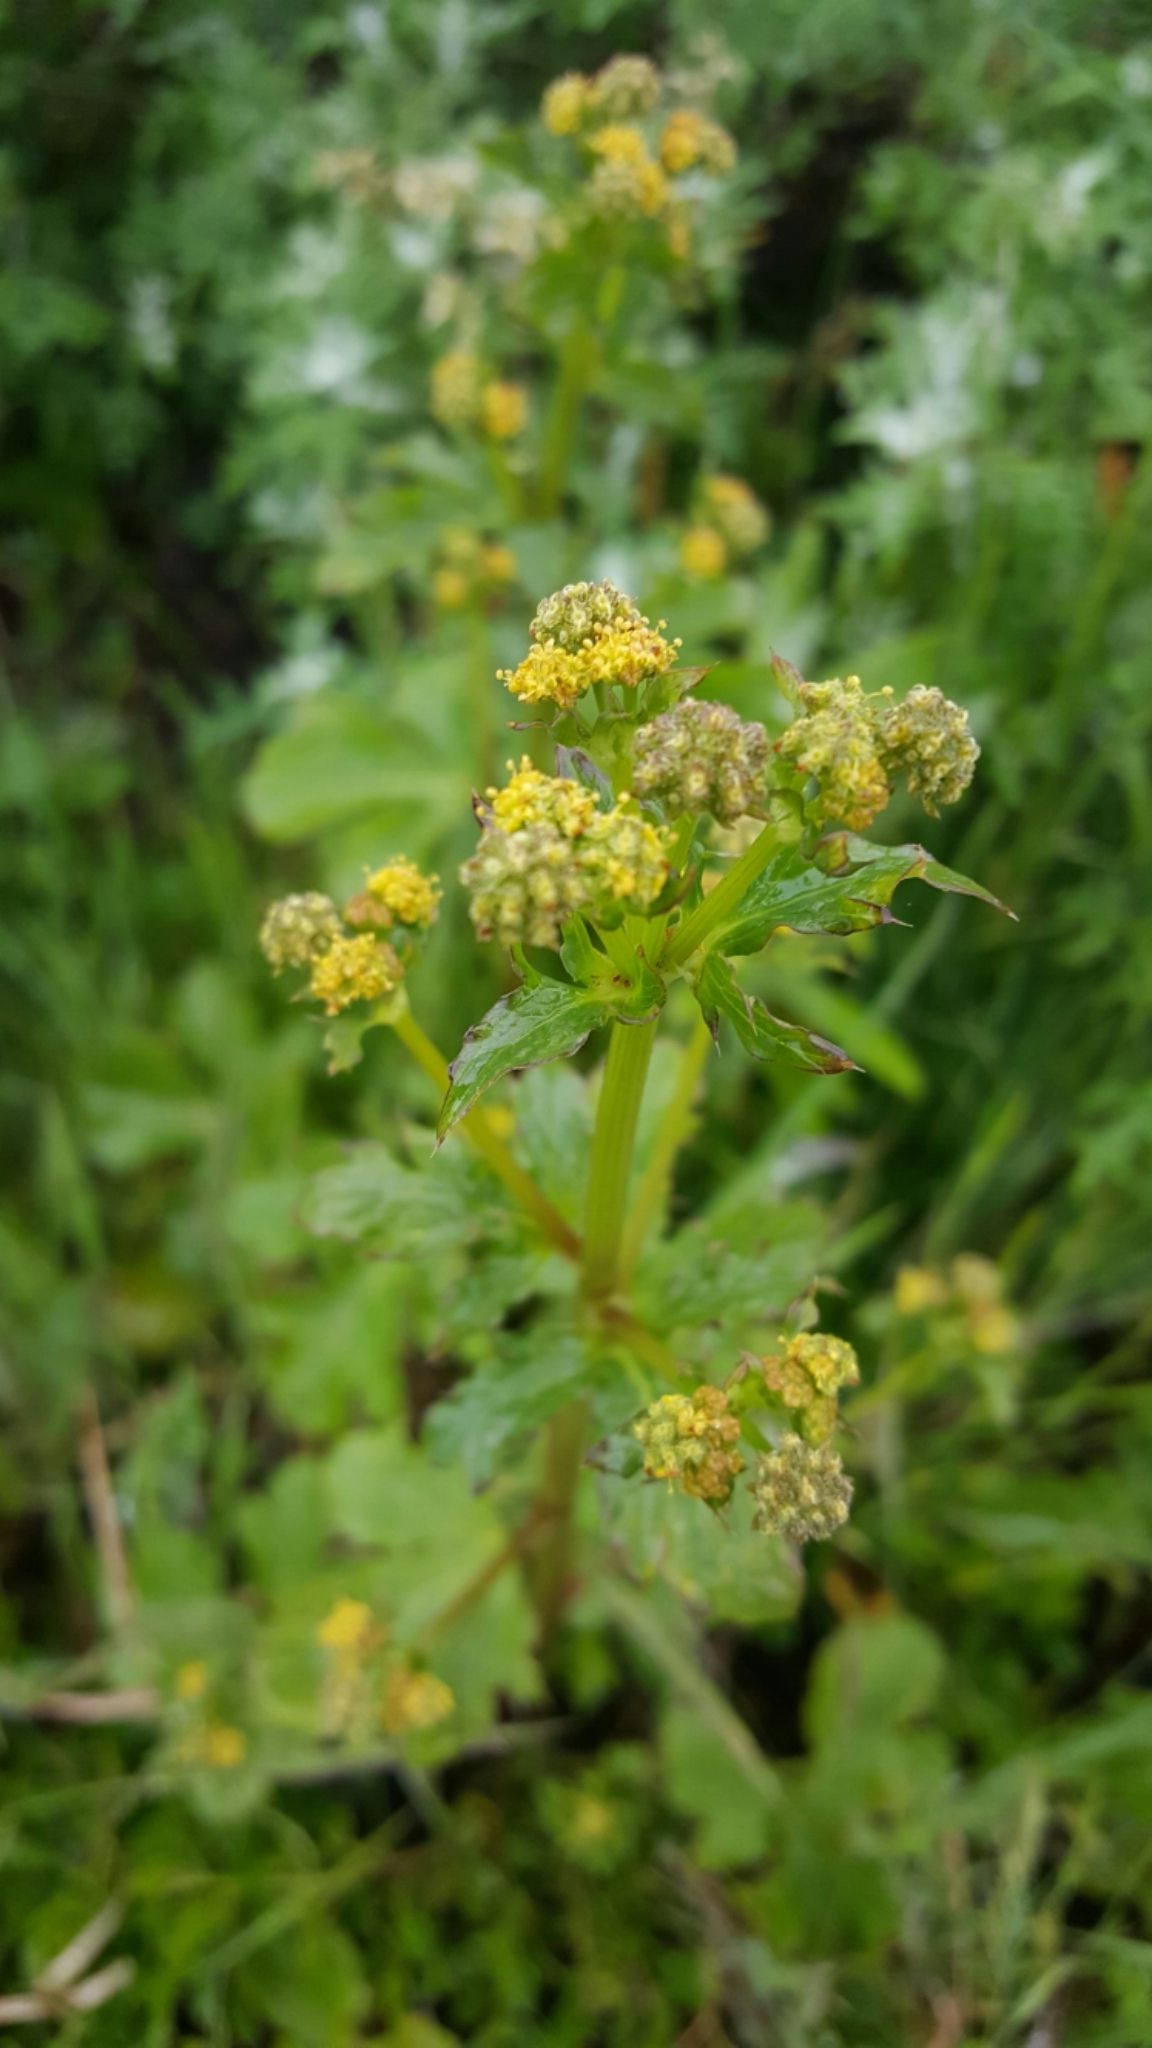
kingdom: Plantae
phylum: Tracheophyta
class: Magnoliopsida
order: Apiales
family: Apiaceae
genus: Sanicula
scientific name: Sanicula crassicaulis
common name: Western snakeroot
